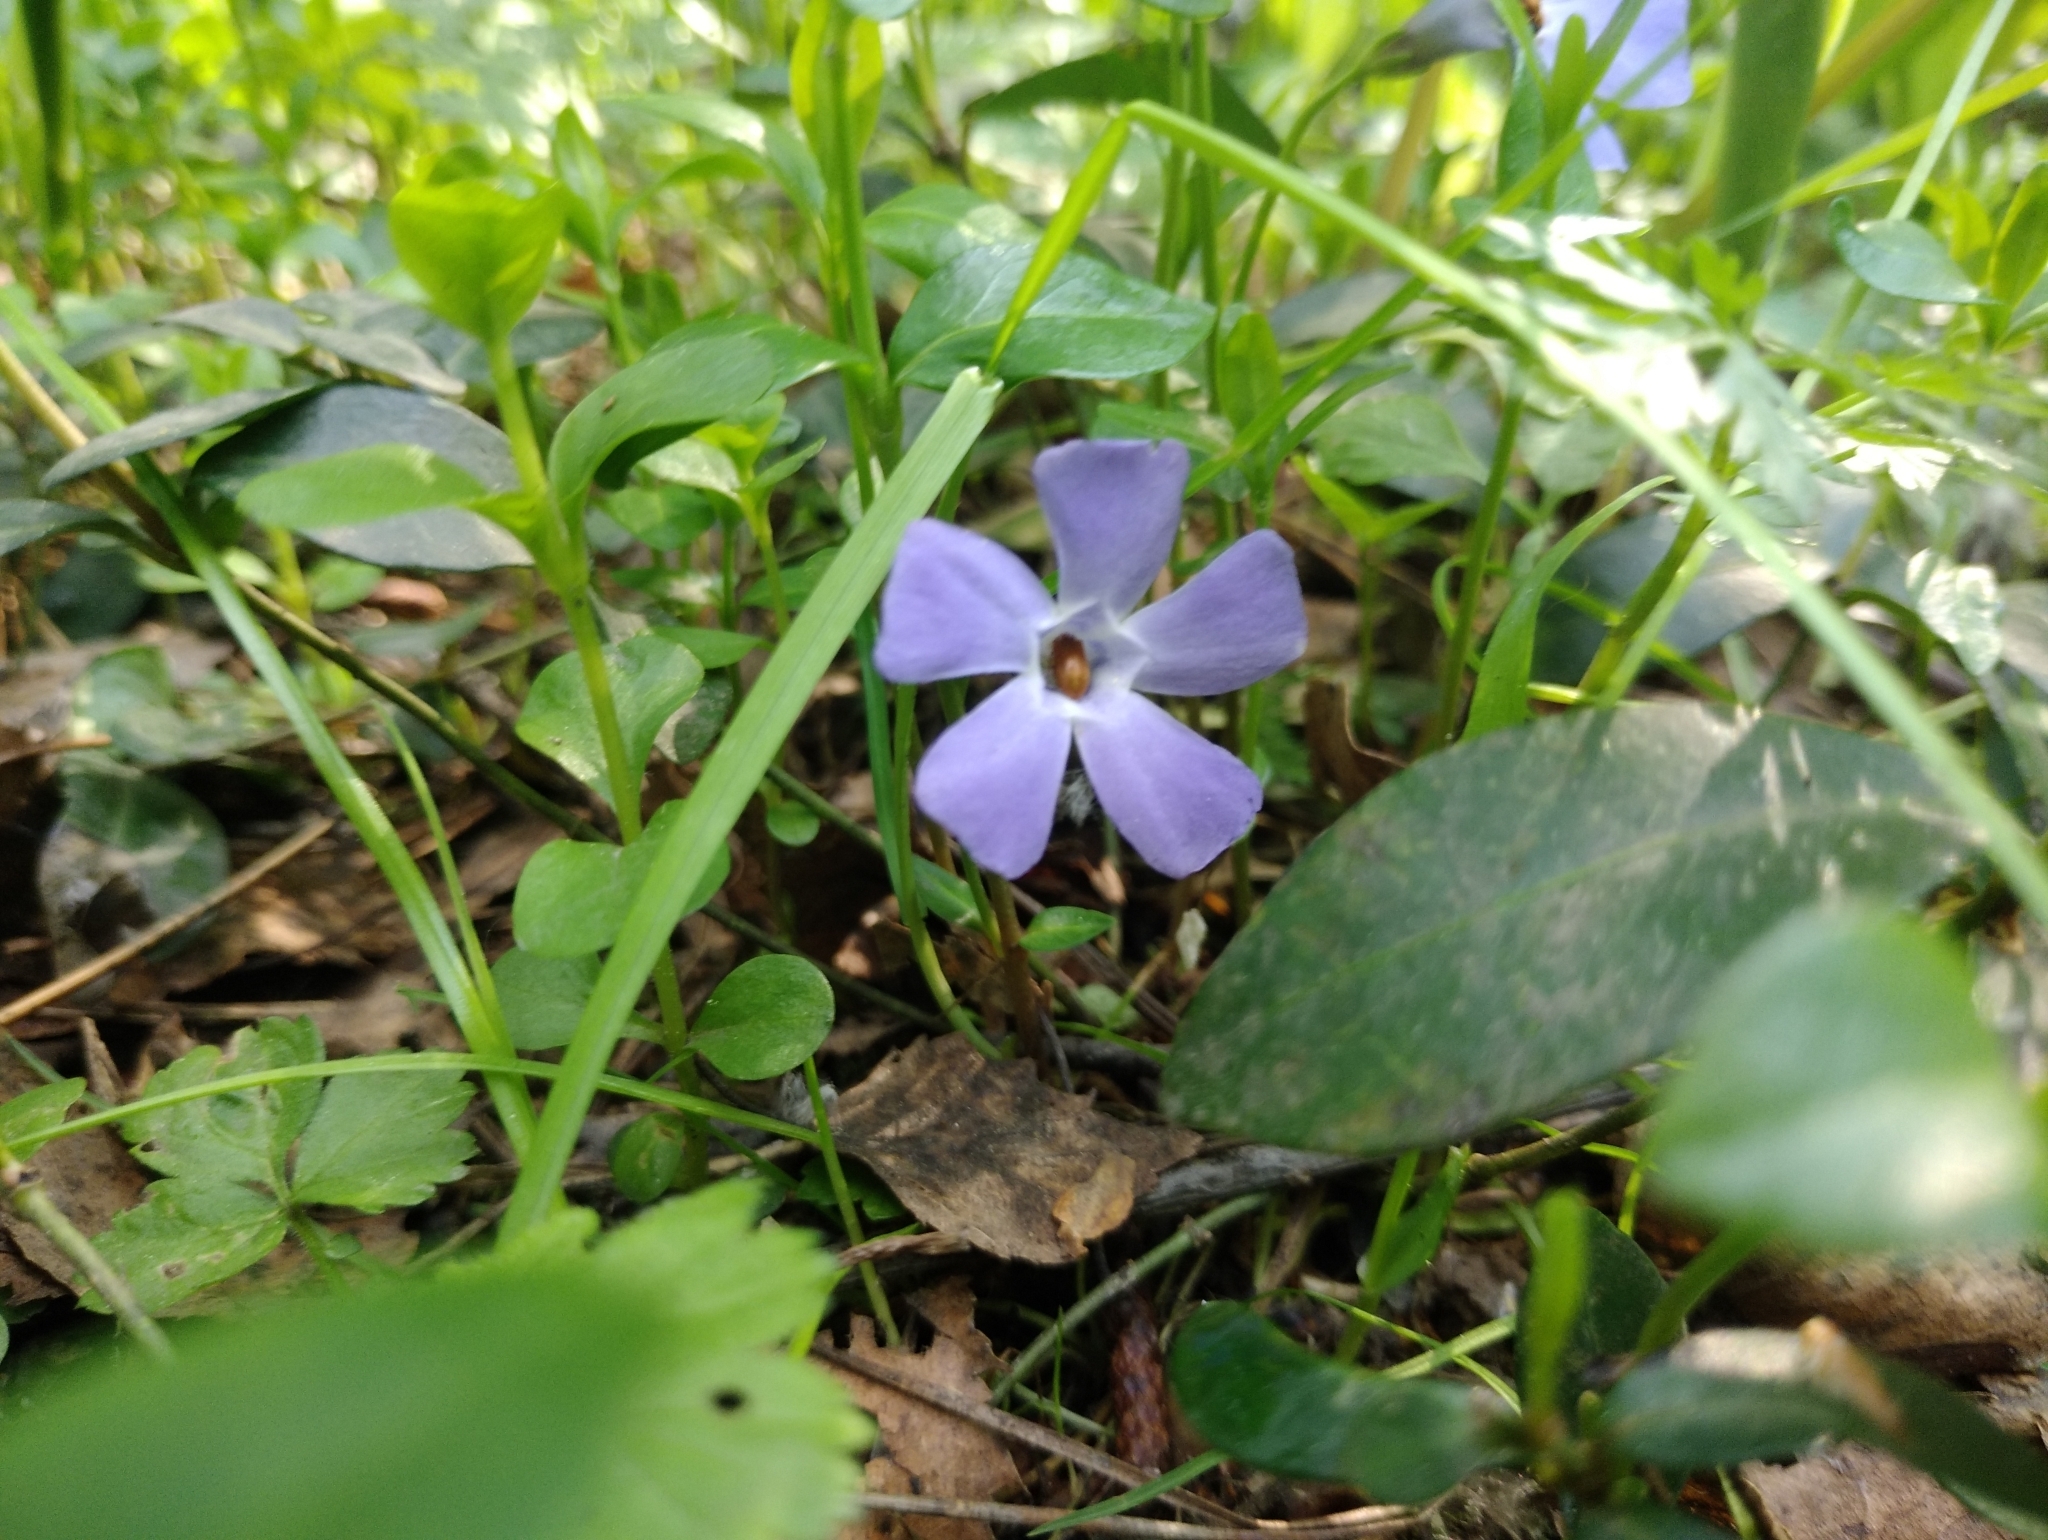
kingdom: Plantae
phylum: Tracheophyta
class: Magnoliopsida
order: Gentianales
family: Apocynaceae
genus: Vinca
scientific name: Vinca minor
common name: Lesser periwinkle
